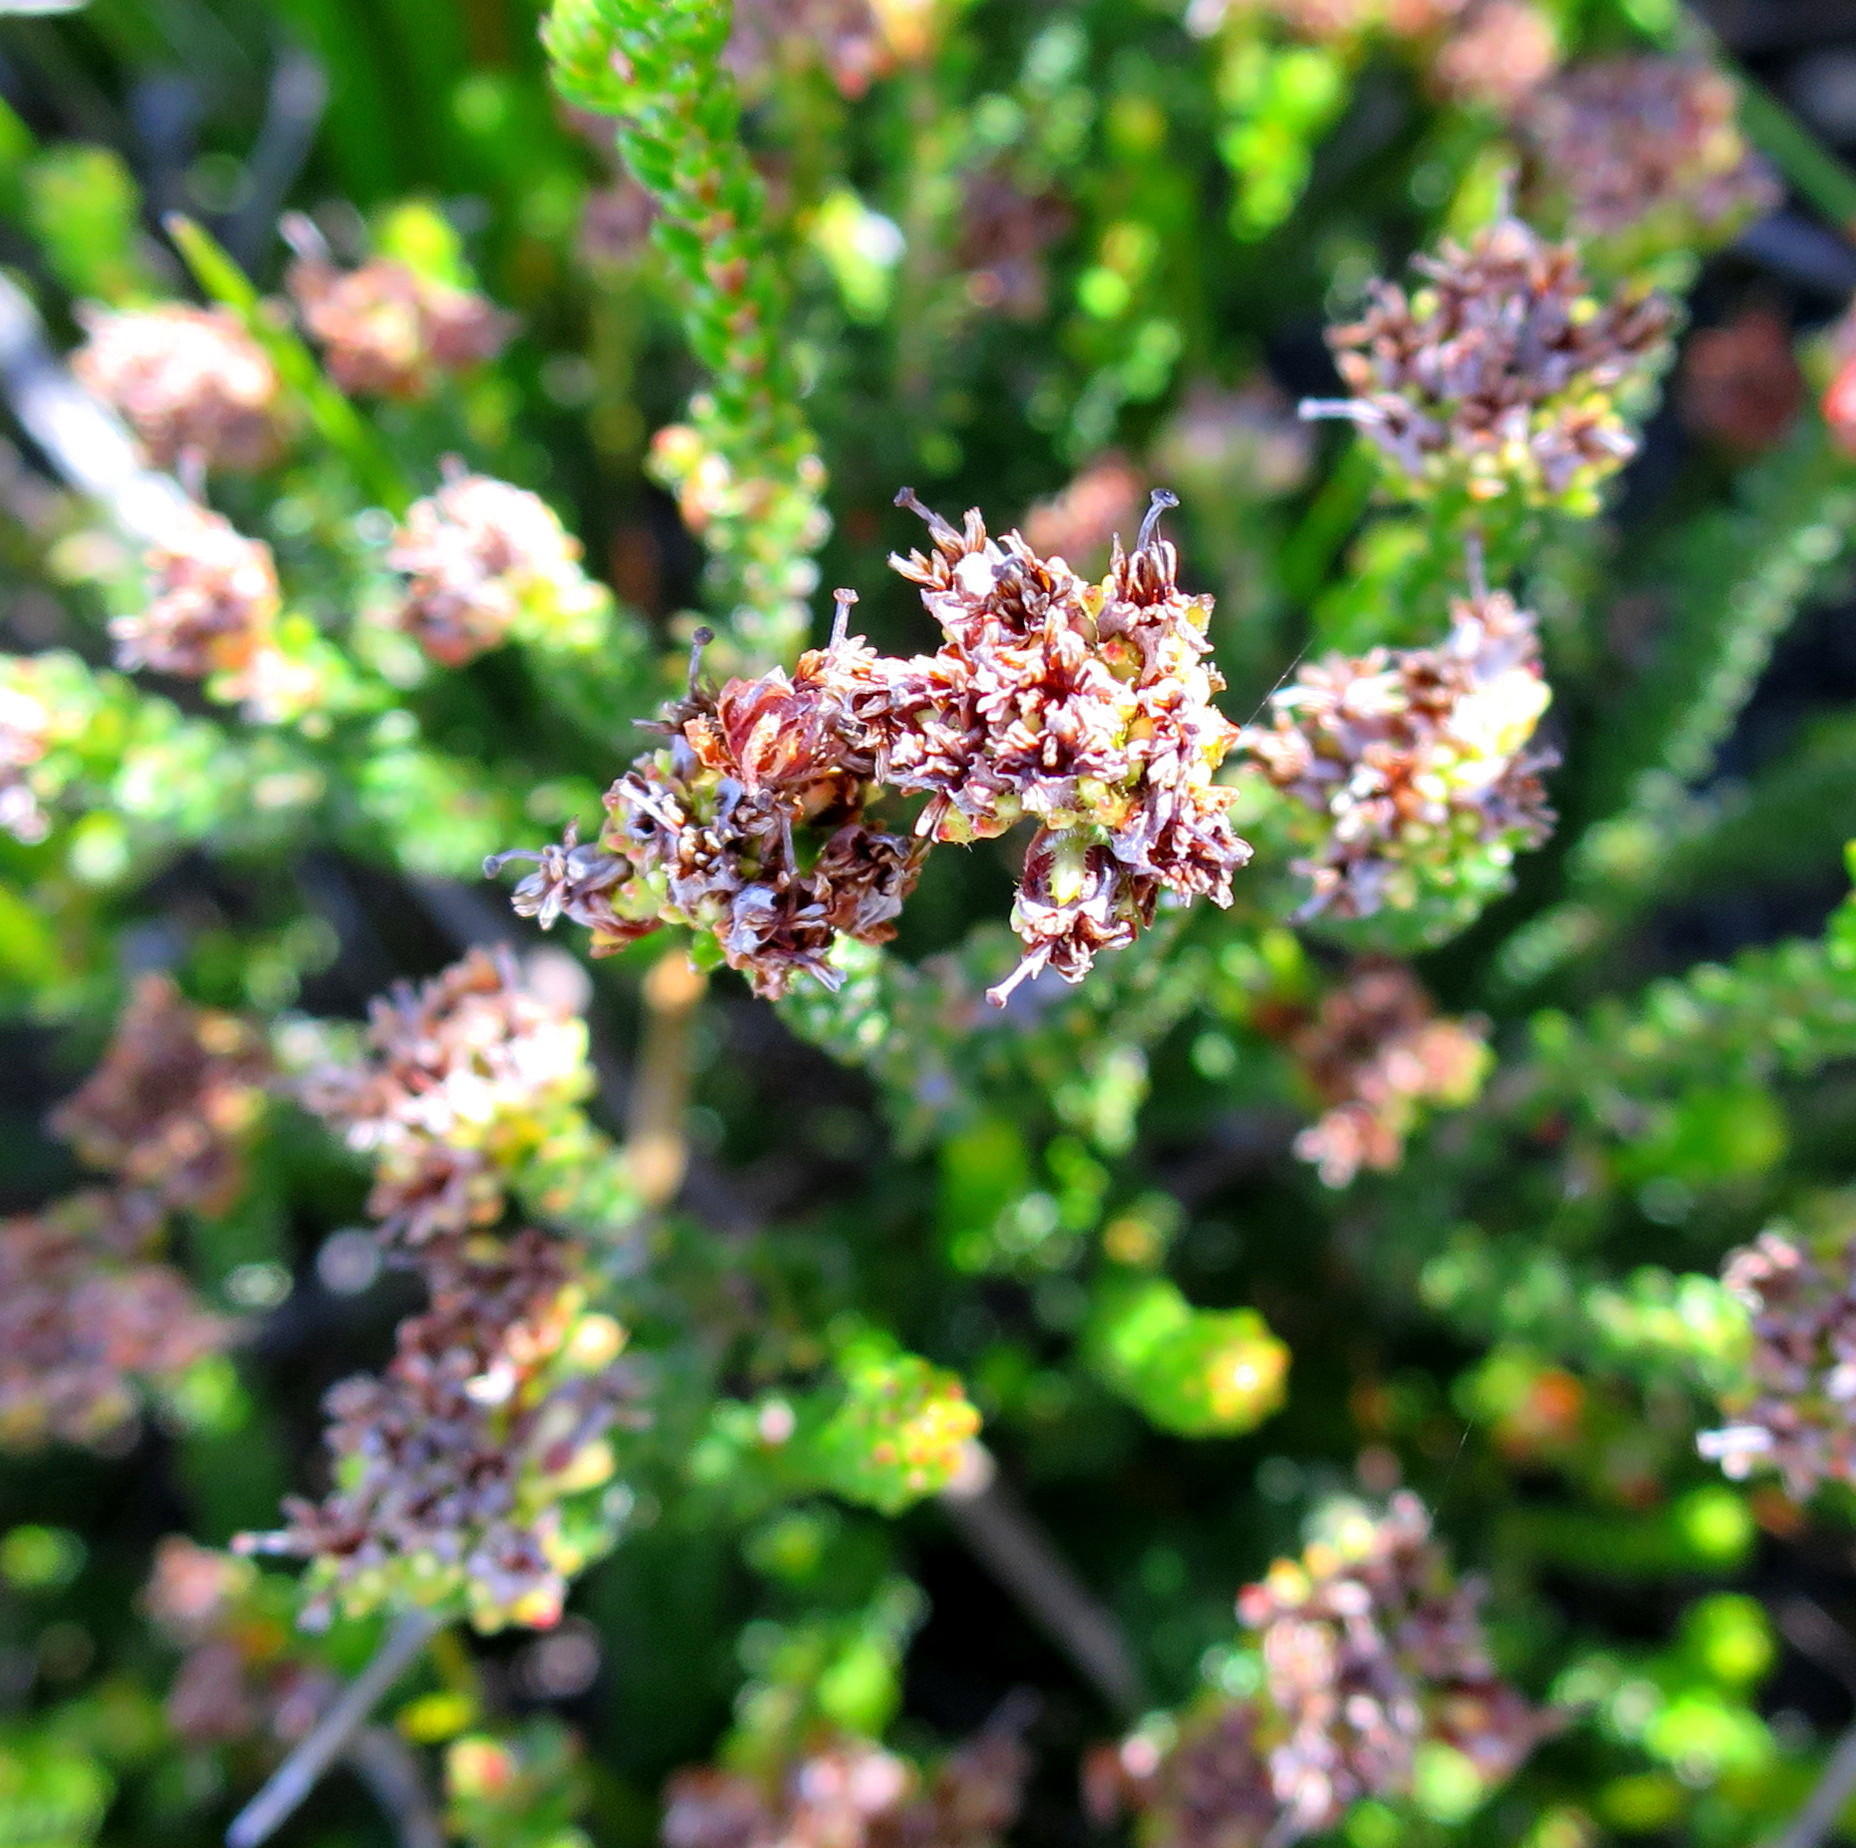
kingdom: Plantae
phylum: Tracheophyta
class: Magnoliopsida
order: Ericales
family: Ericaceae
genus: Erica
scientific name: Erica stylaris
